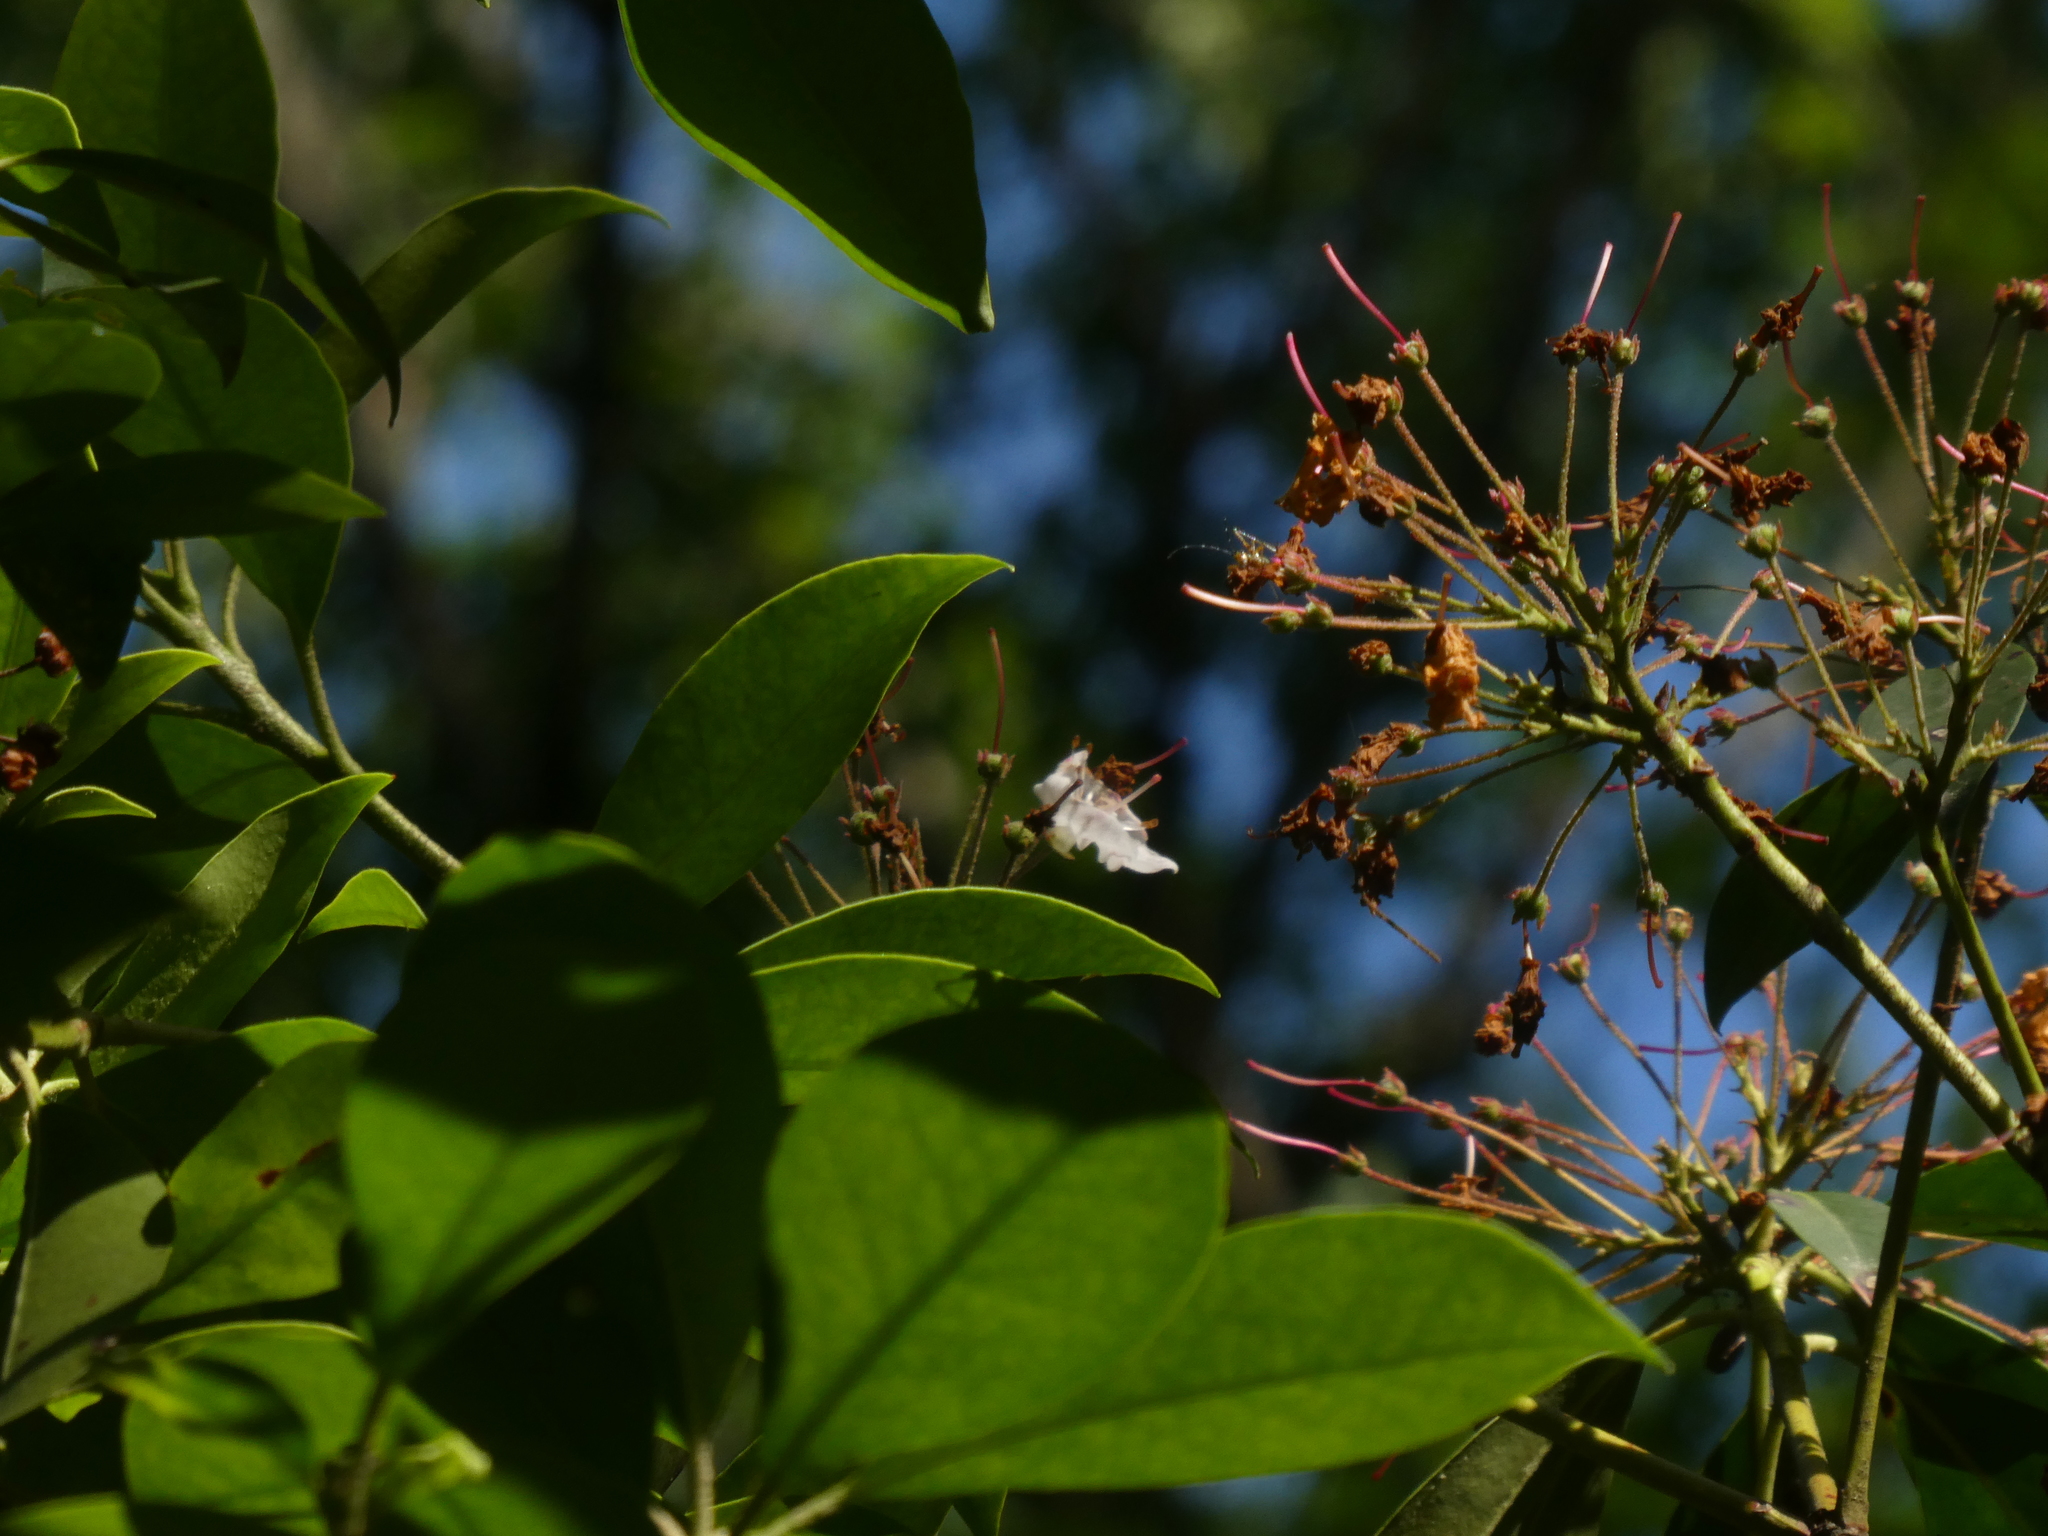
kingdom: Plantae
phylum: Tracheophyta
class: Magnoliopsida
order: Ericales
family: Ericaceae
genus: Kalmia
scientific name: Kalmia latifolia
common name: Mountain-laurel
